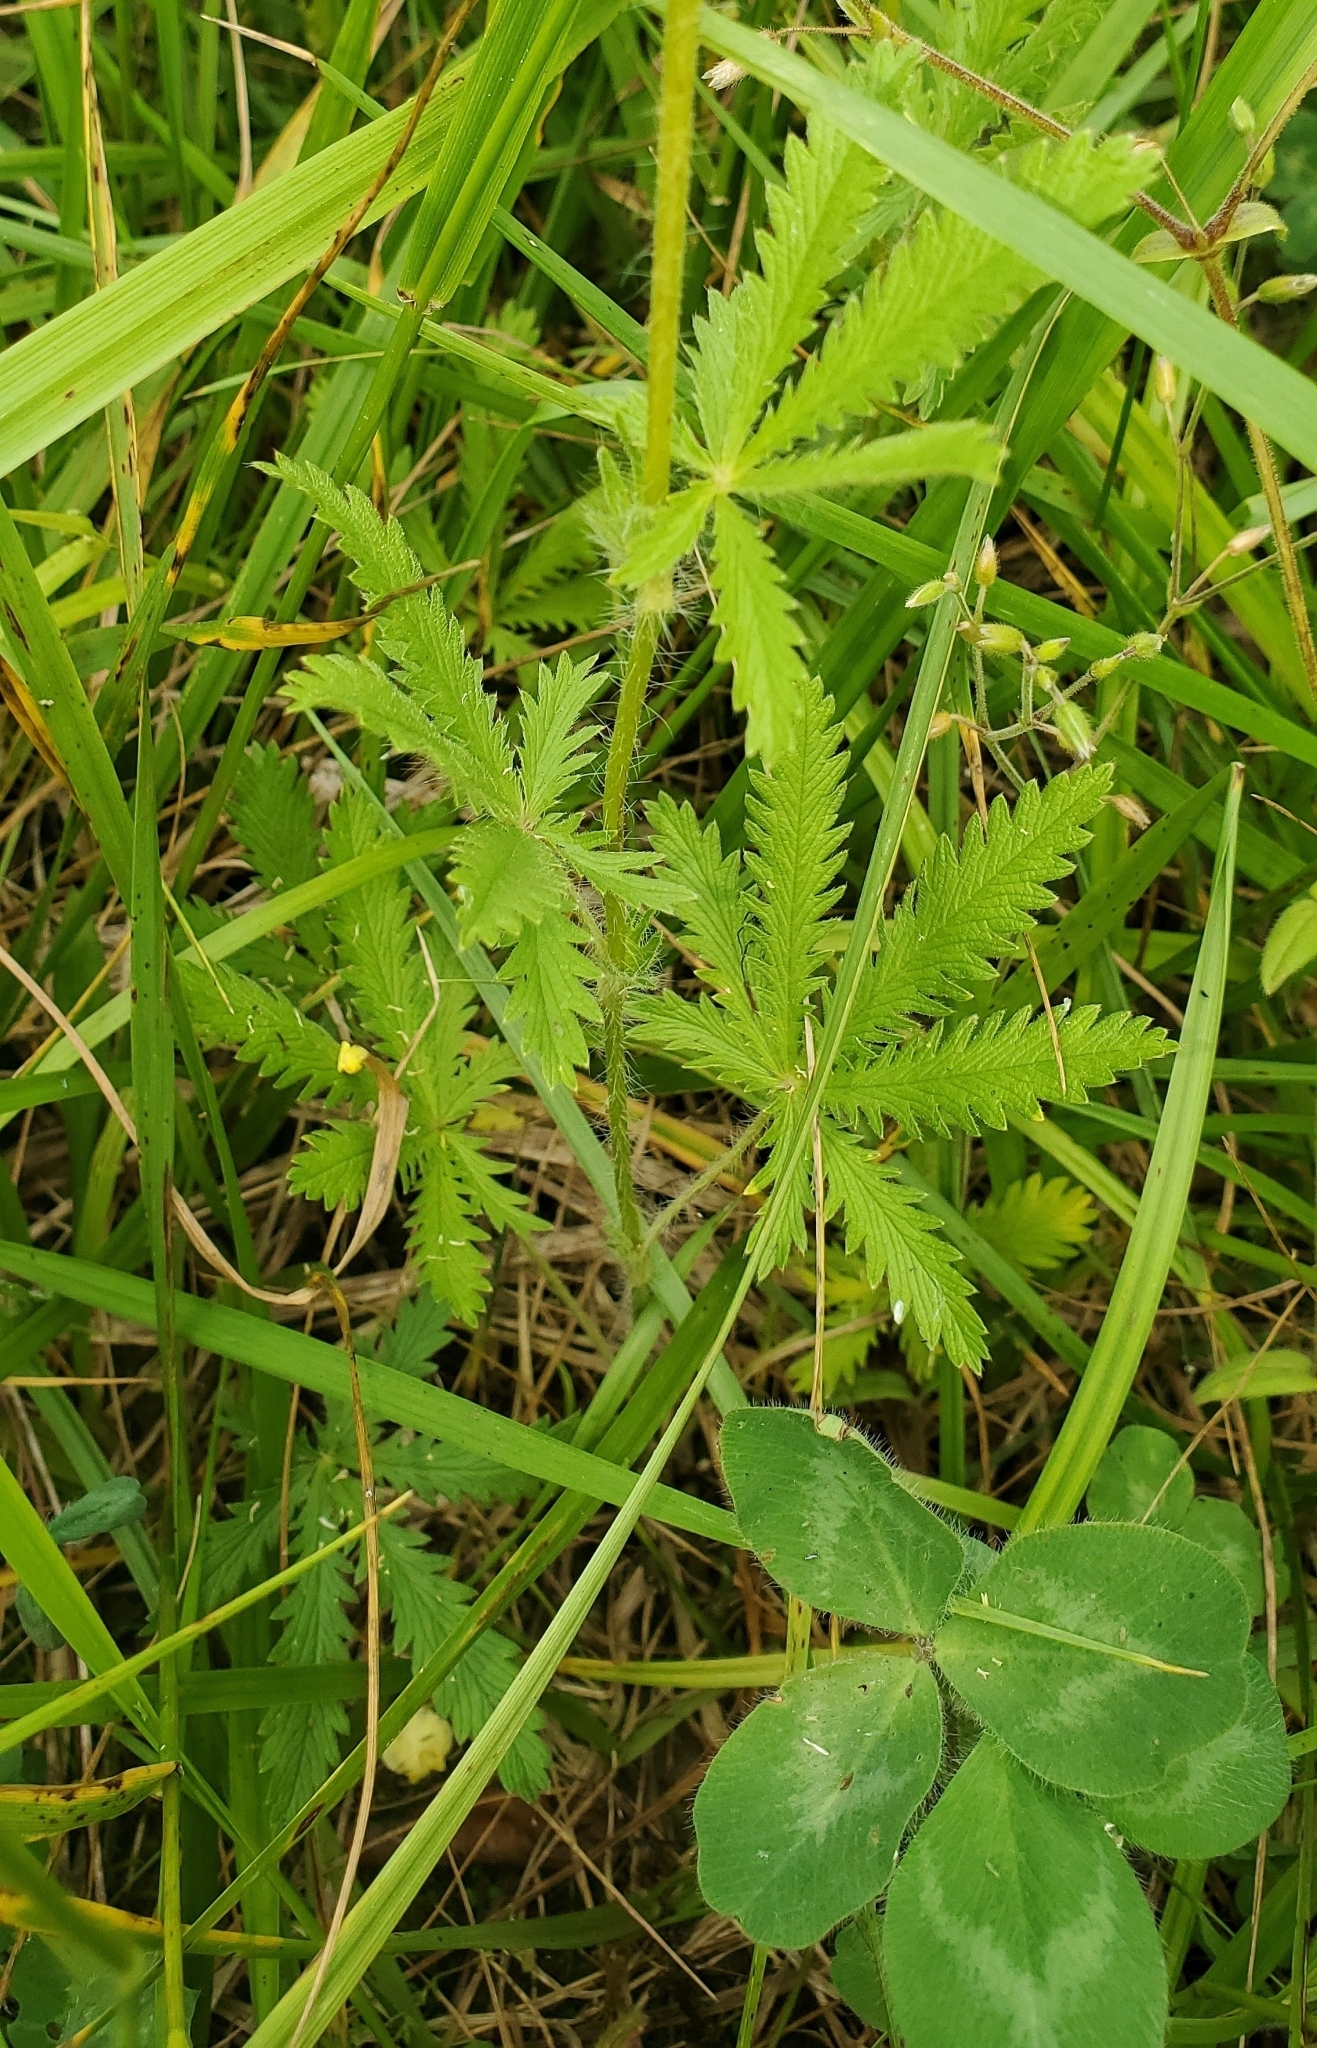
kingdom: Plantae
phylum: Tracheophyta
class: Magnoliopsida
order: Rosales
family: Rosaceae
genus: Potentilla
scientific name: Potentilla recta
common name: Sulphur cinquefoil
